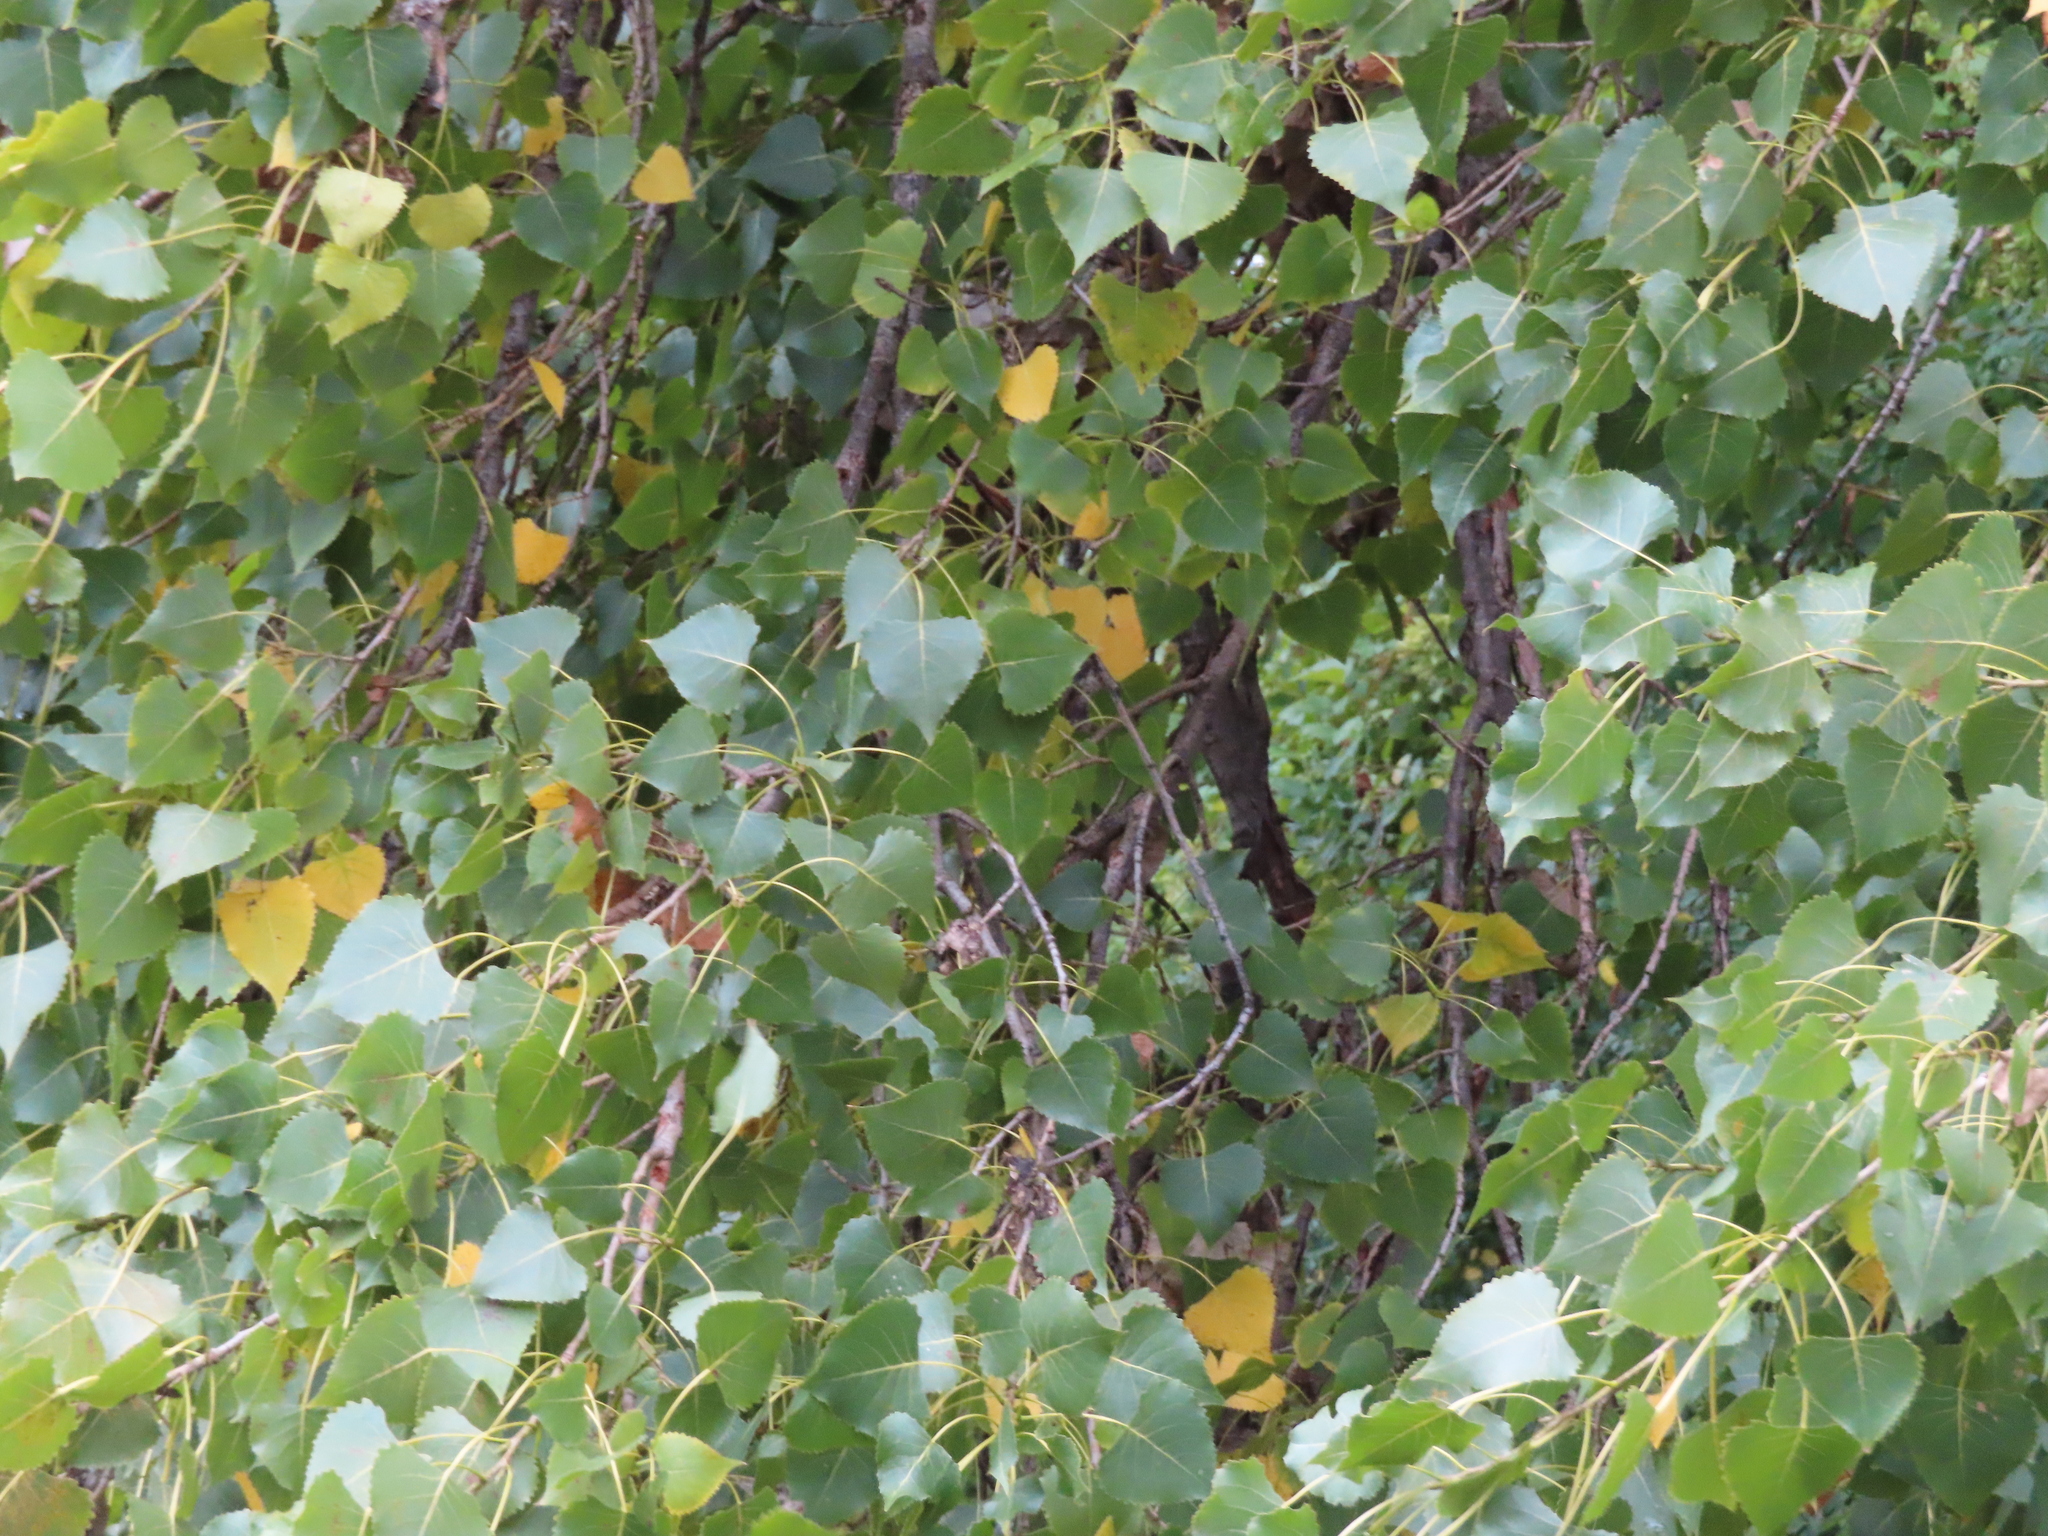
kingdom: Plantae
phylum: Tracheophyta
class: Magnoliopsida
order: Malpighiales
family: Salicaceae
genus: Populus
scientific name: Populus deltoides
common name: Eastern cottonwood
